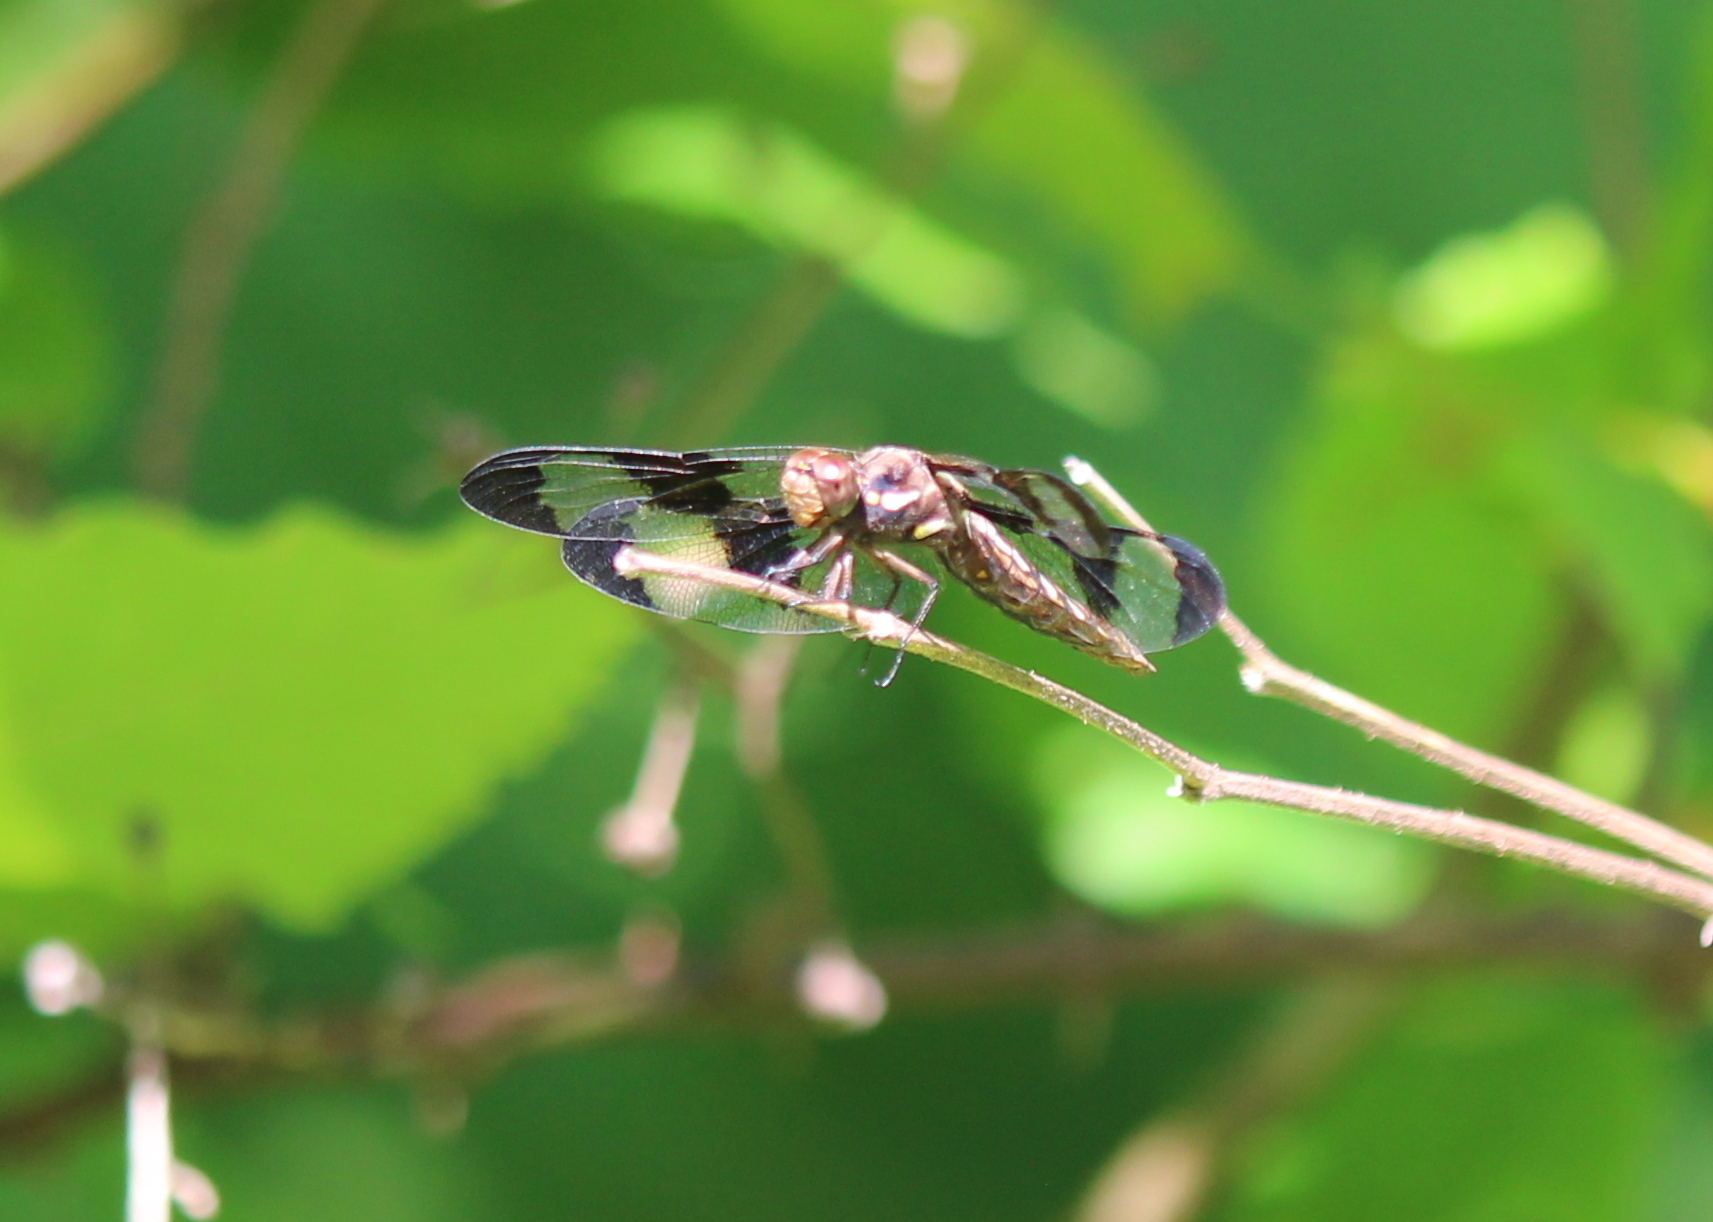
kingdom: Animalia
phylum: Arthropoda
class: Insecta
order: Odonata
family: Libellulidae
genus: Plathemis
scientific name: Plathemis lydia
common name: Common whitetail
